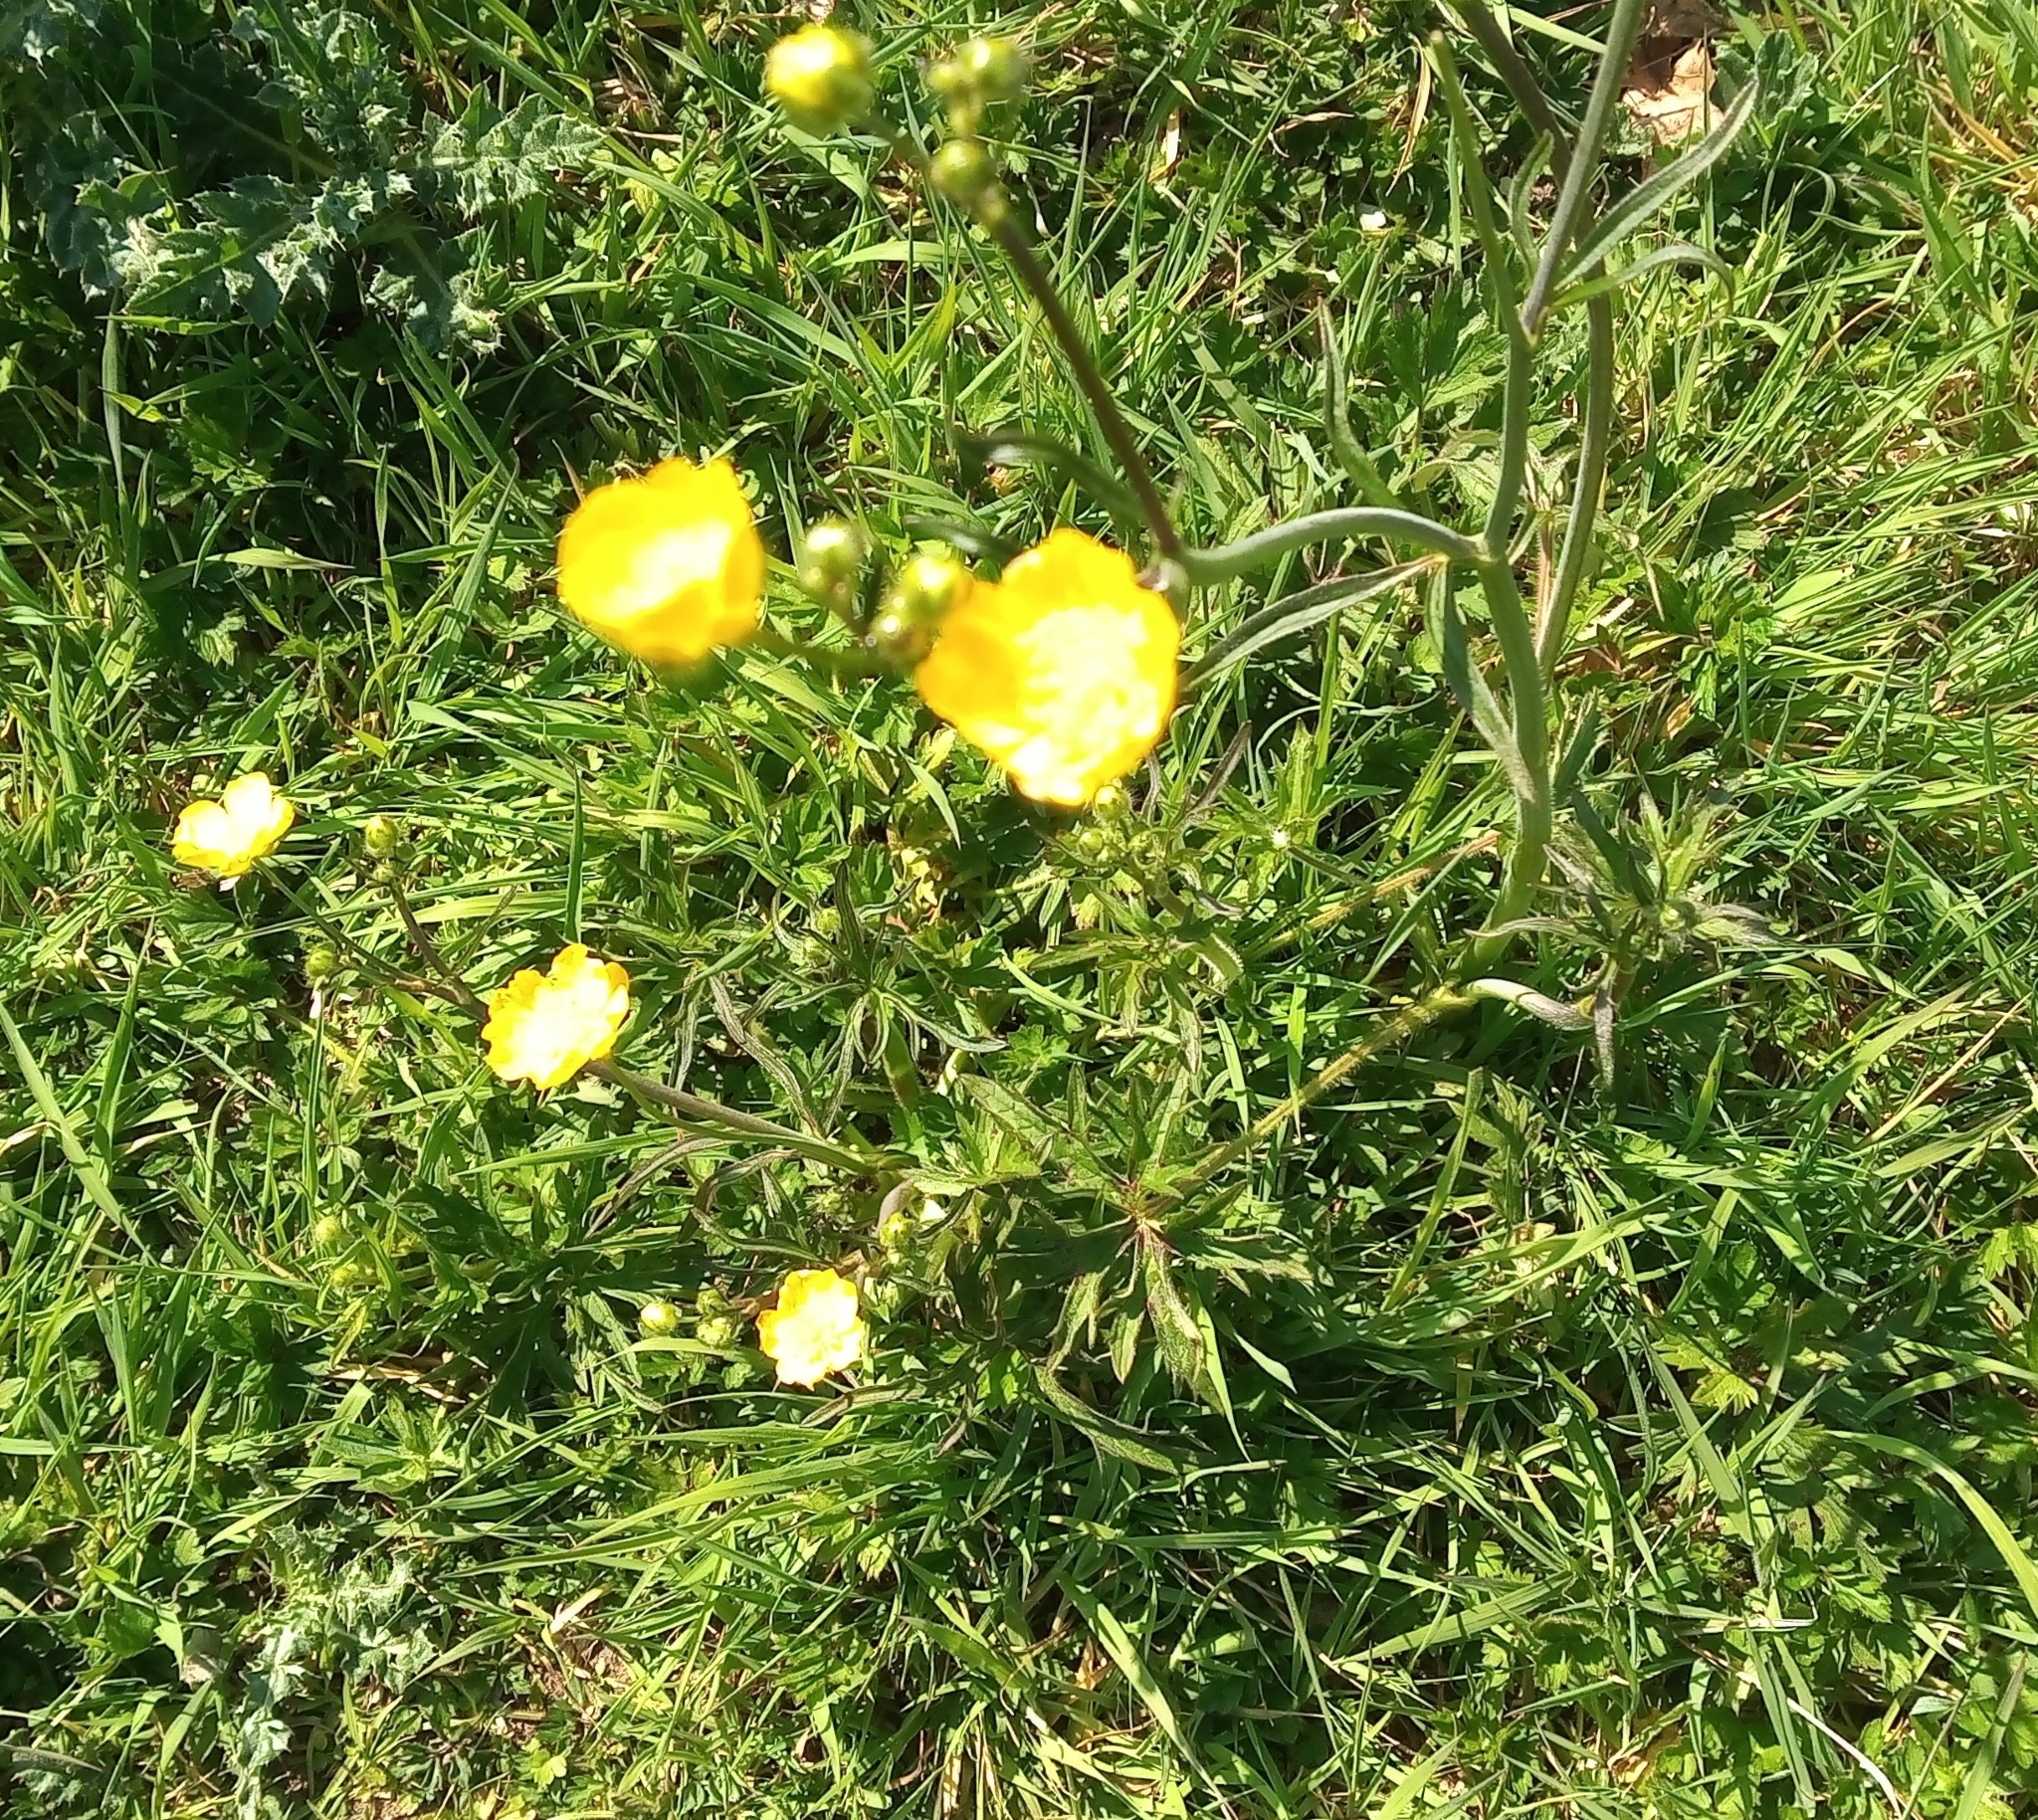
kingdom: Plantae
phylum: Tracheophyta
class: Magnoliopsida
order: Ranunculales
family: Ranunculaceae
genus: Ranunculus
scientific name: Ranunculus acris
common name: Meadow buttercup
